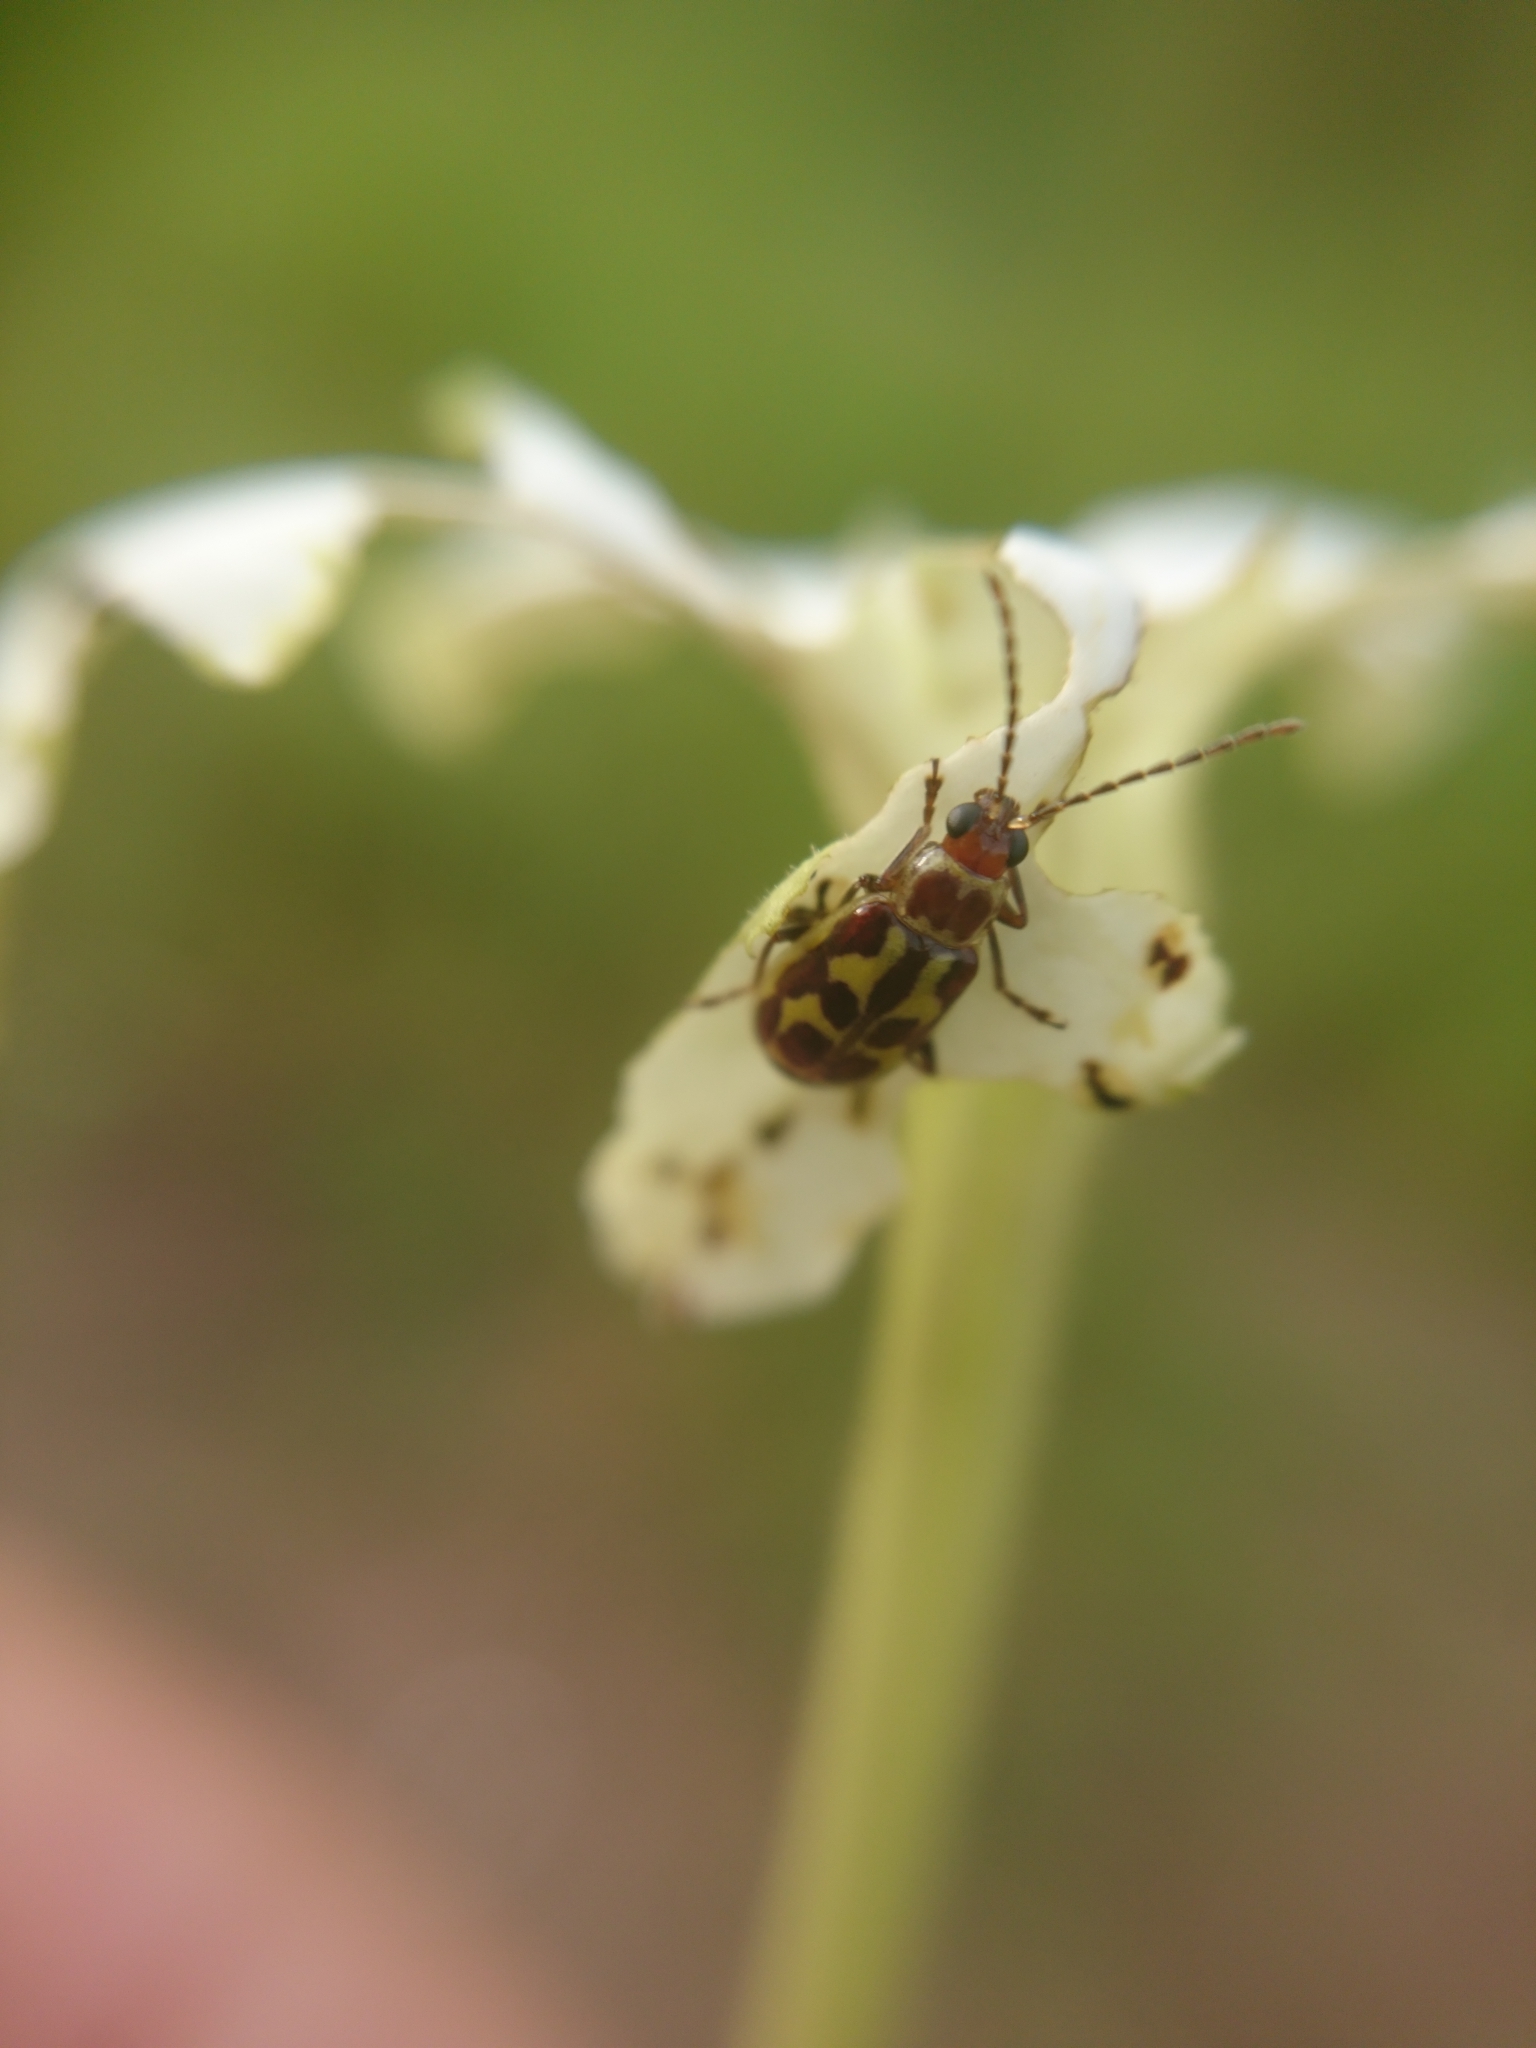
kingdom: Animalia
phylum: Arthropoda
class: Insecta
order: Coleoptera
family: Chrysomelidae
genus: Paranapiacaba
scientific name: Paranapiacaba significata
